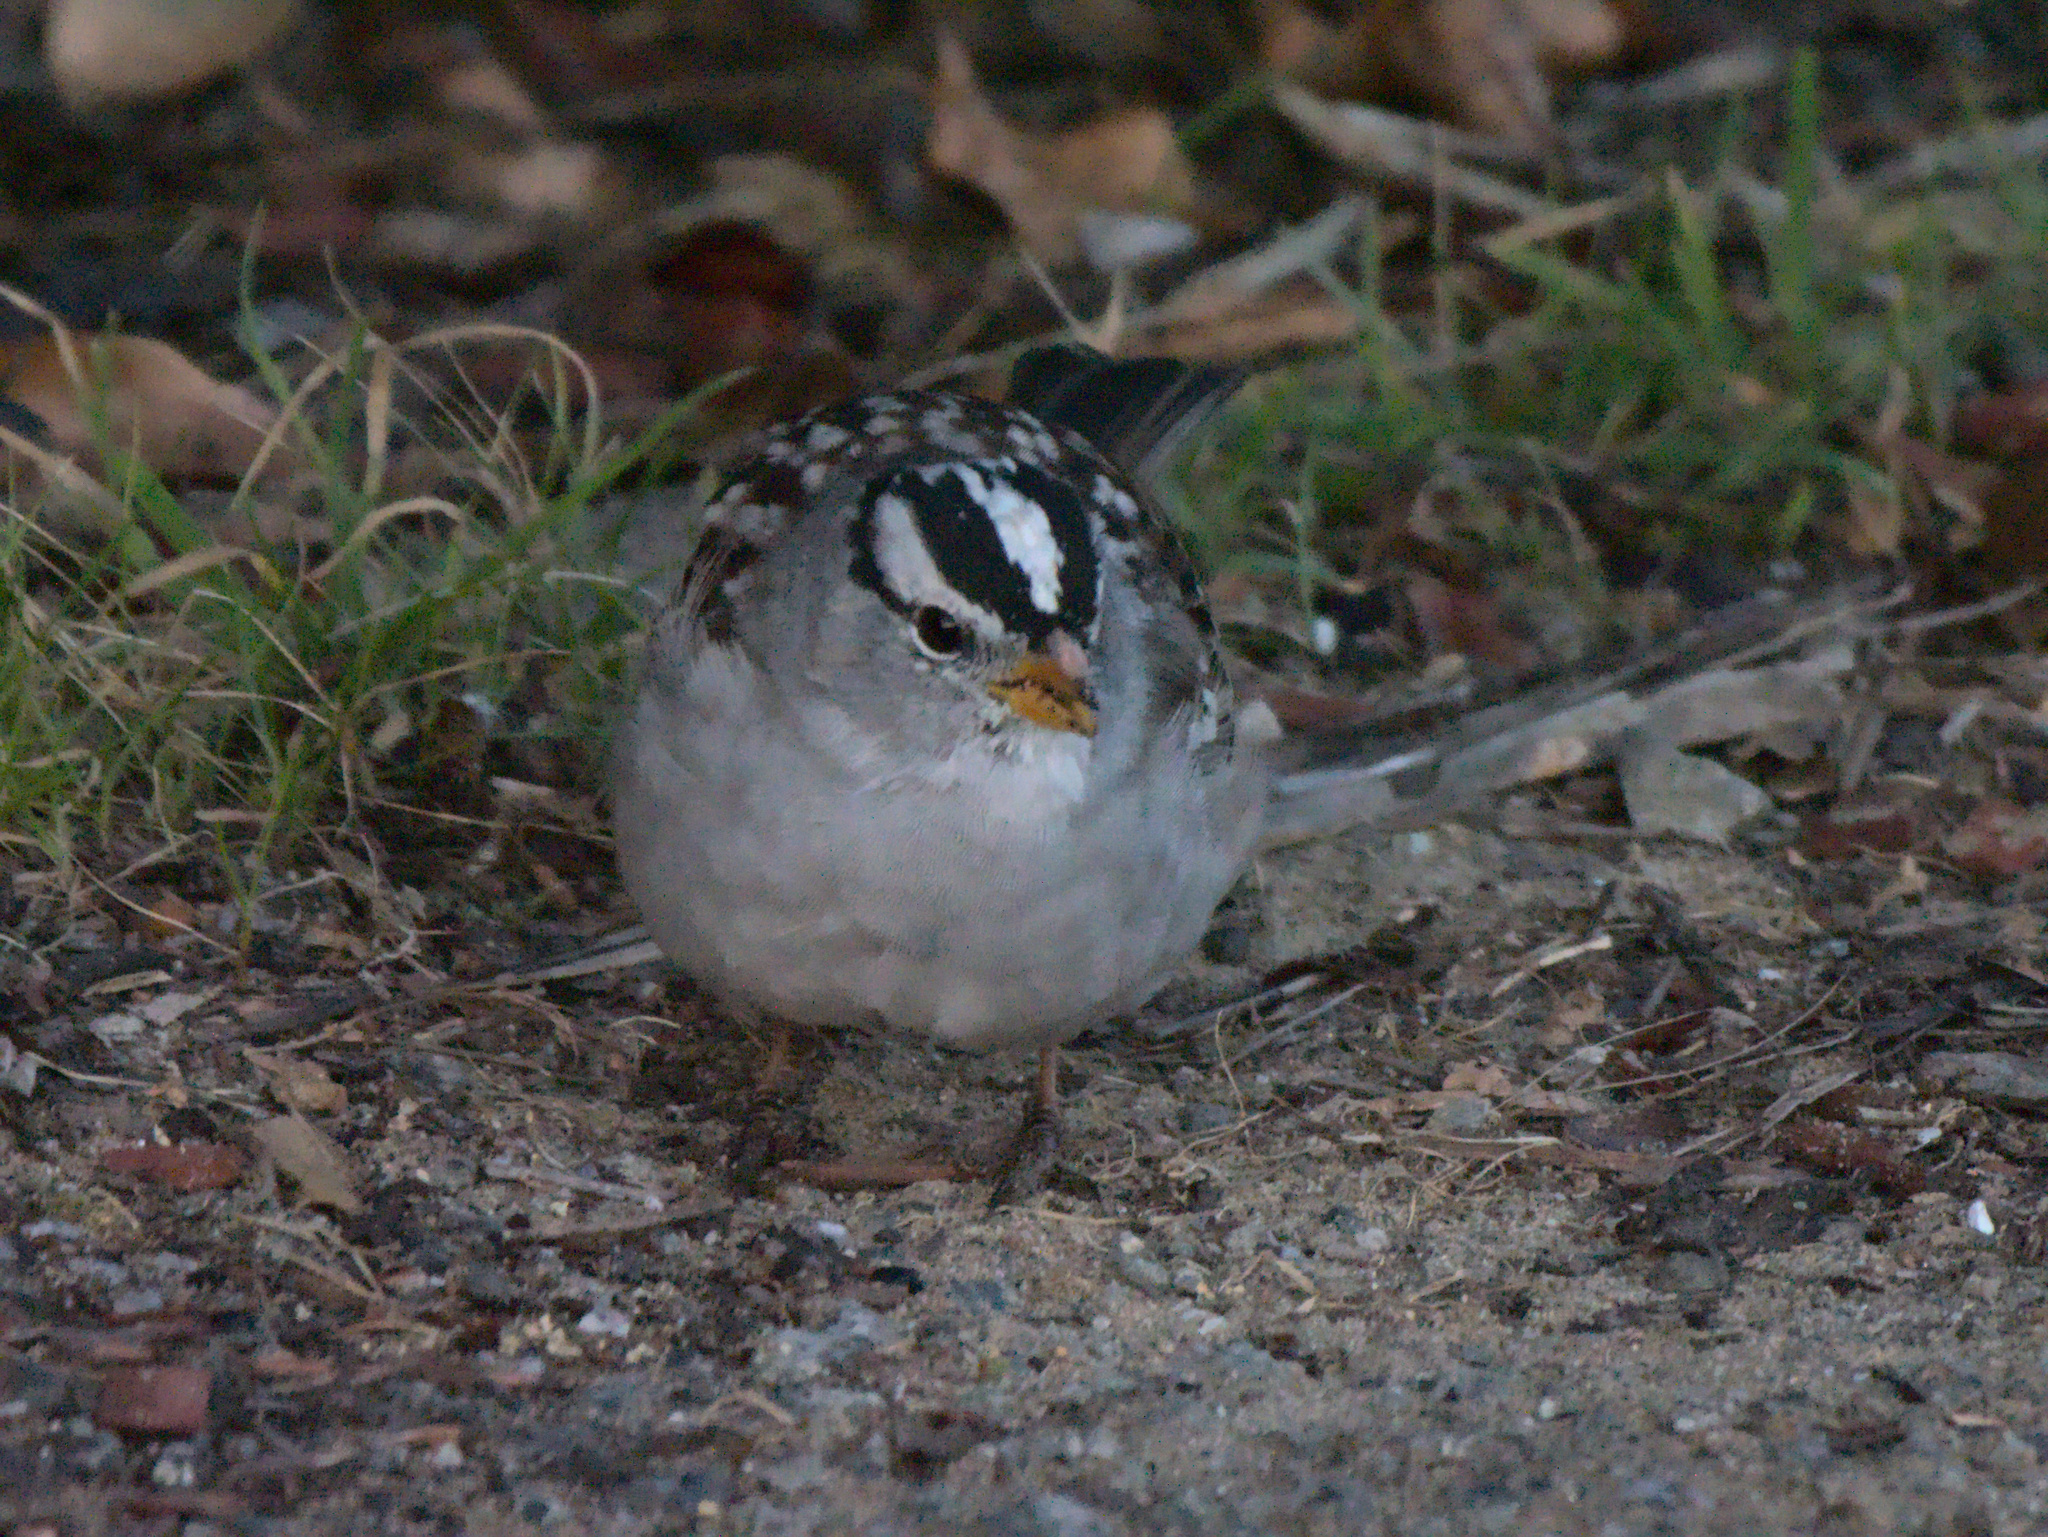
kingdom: Animalia
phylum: Chordata
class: Aves
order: Passeriformes
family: Passerellidae
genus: Zonotrichia
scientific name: Zonotrichia leucophrys
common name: White-crowned sparrow
